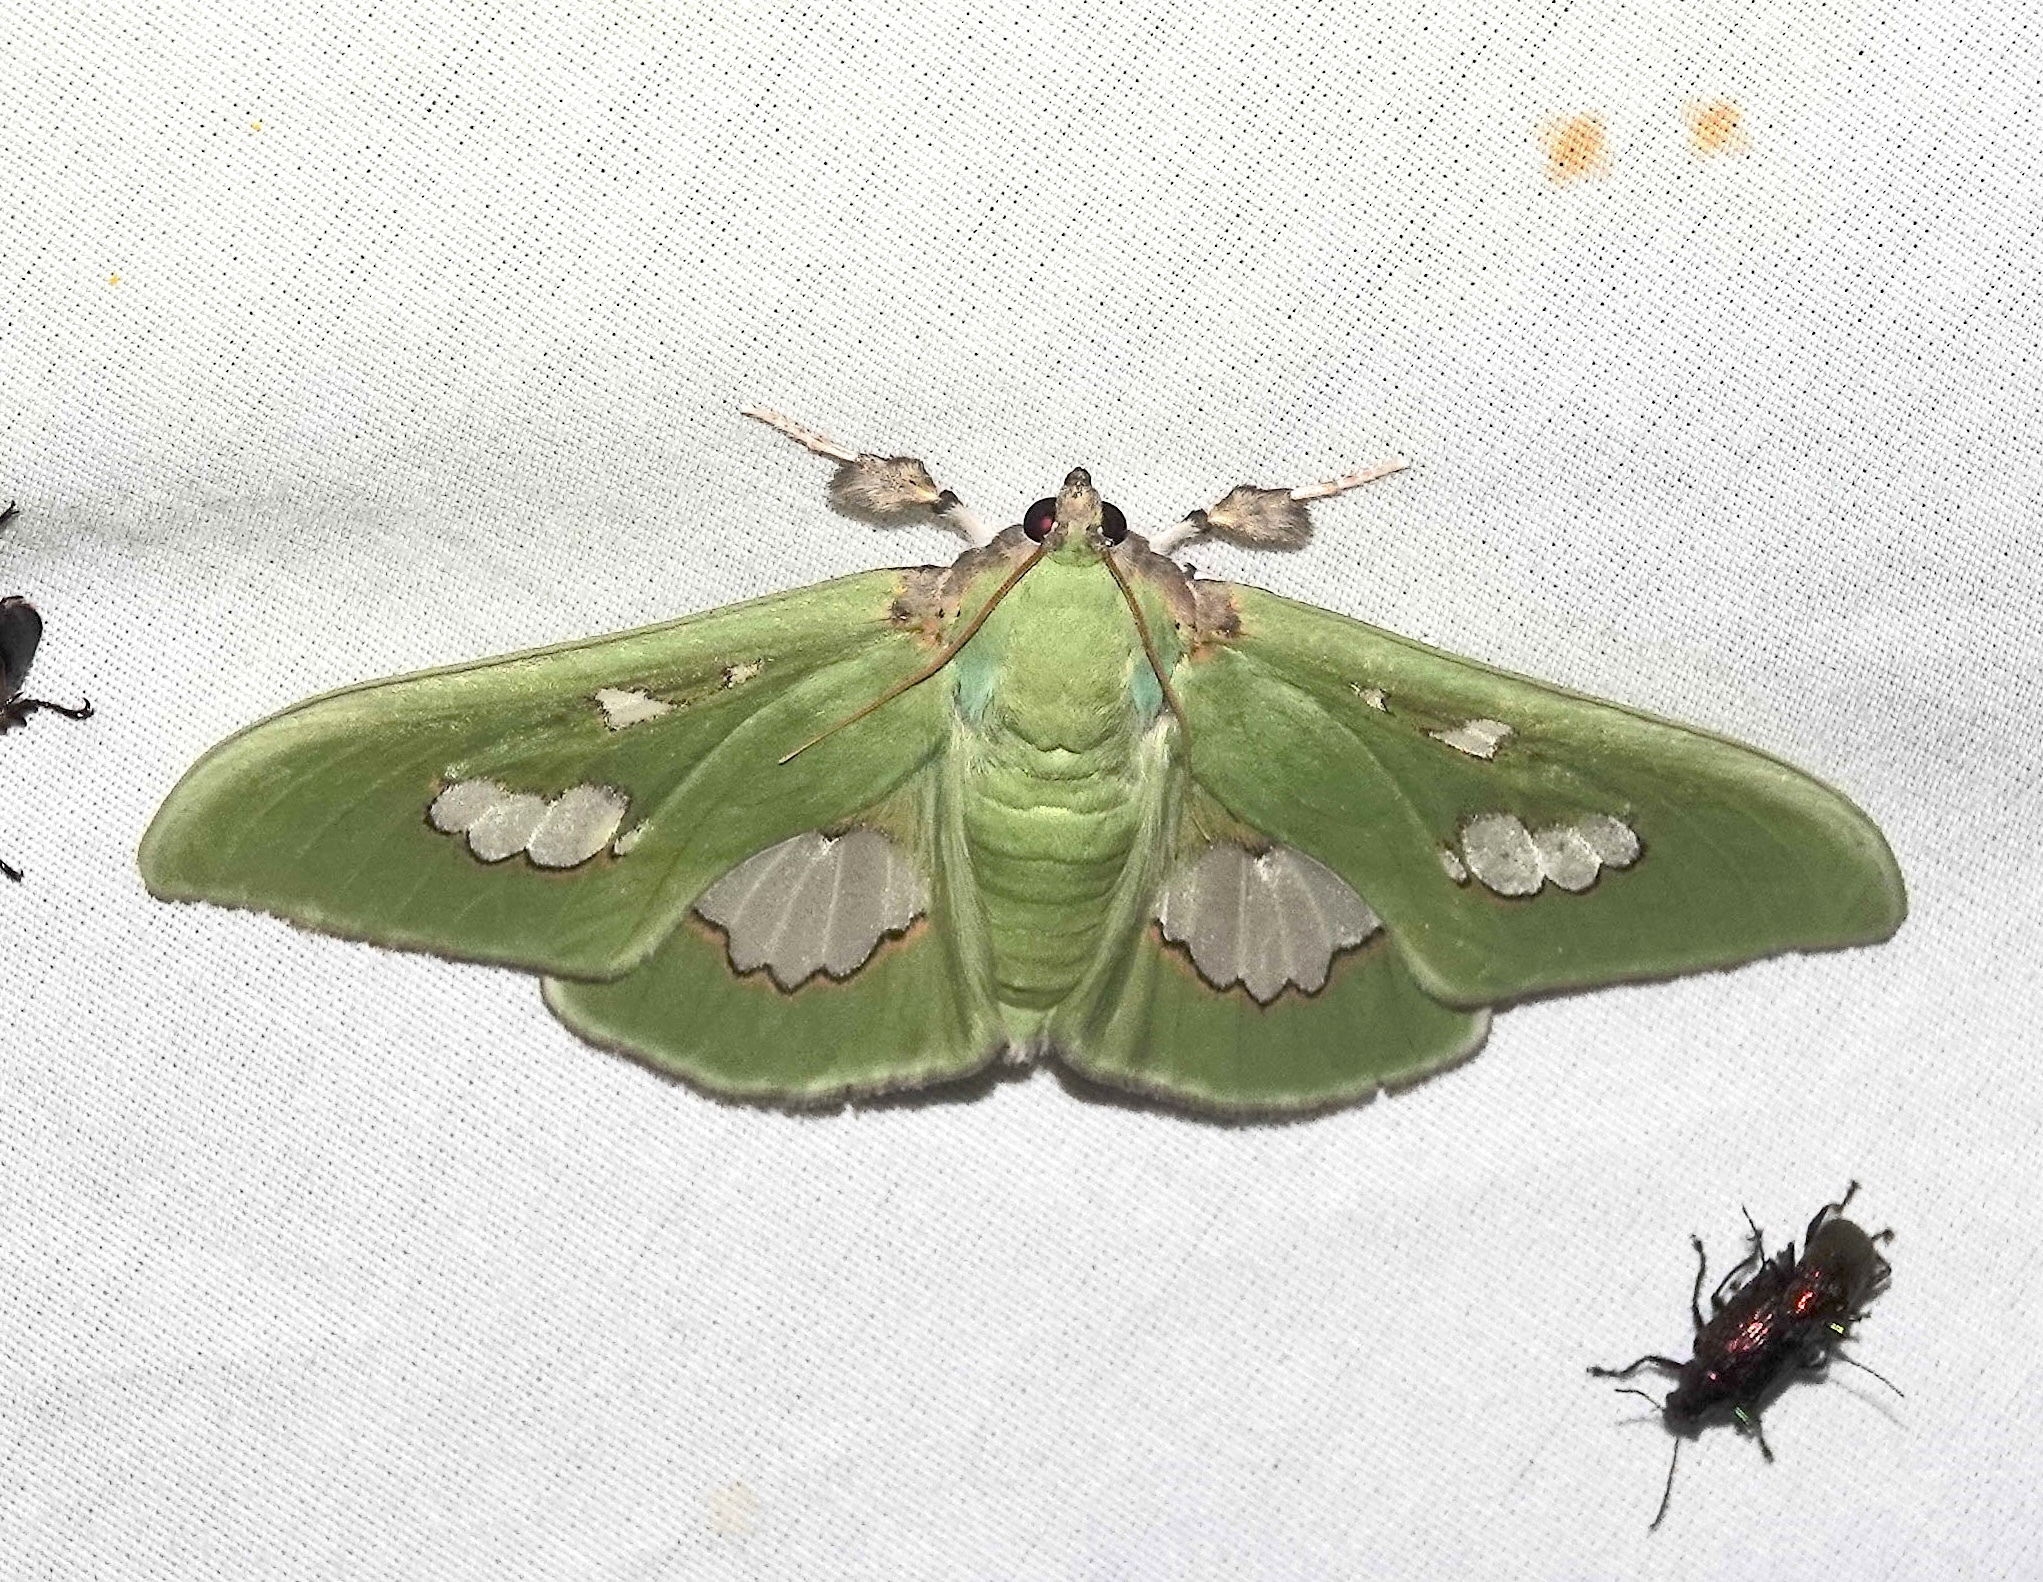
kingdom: Animalia
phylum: Arthropoda
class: Insecta
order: Lepidoptera
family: Crambidae
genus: Siga
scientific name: Siga liris
